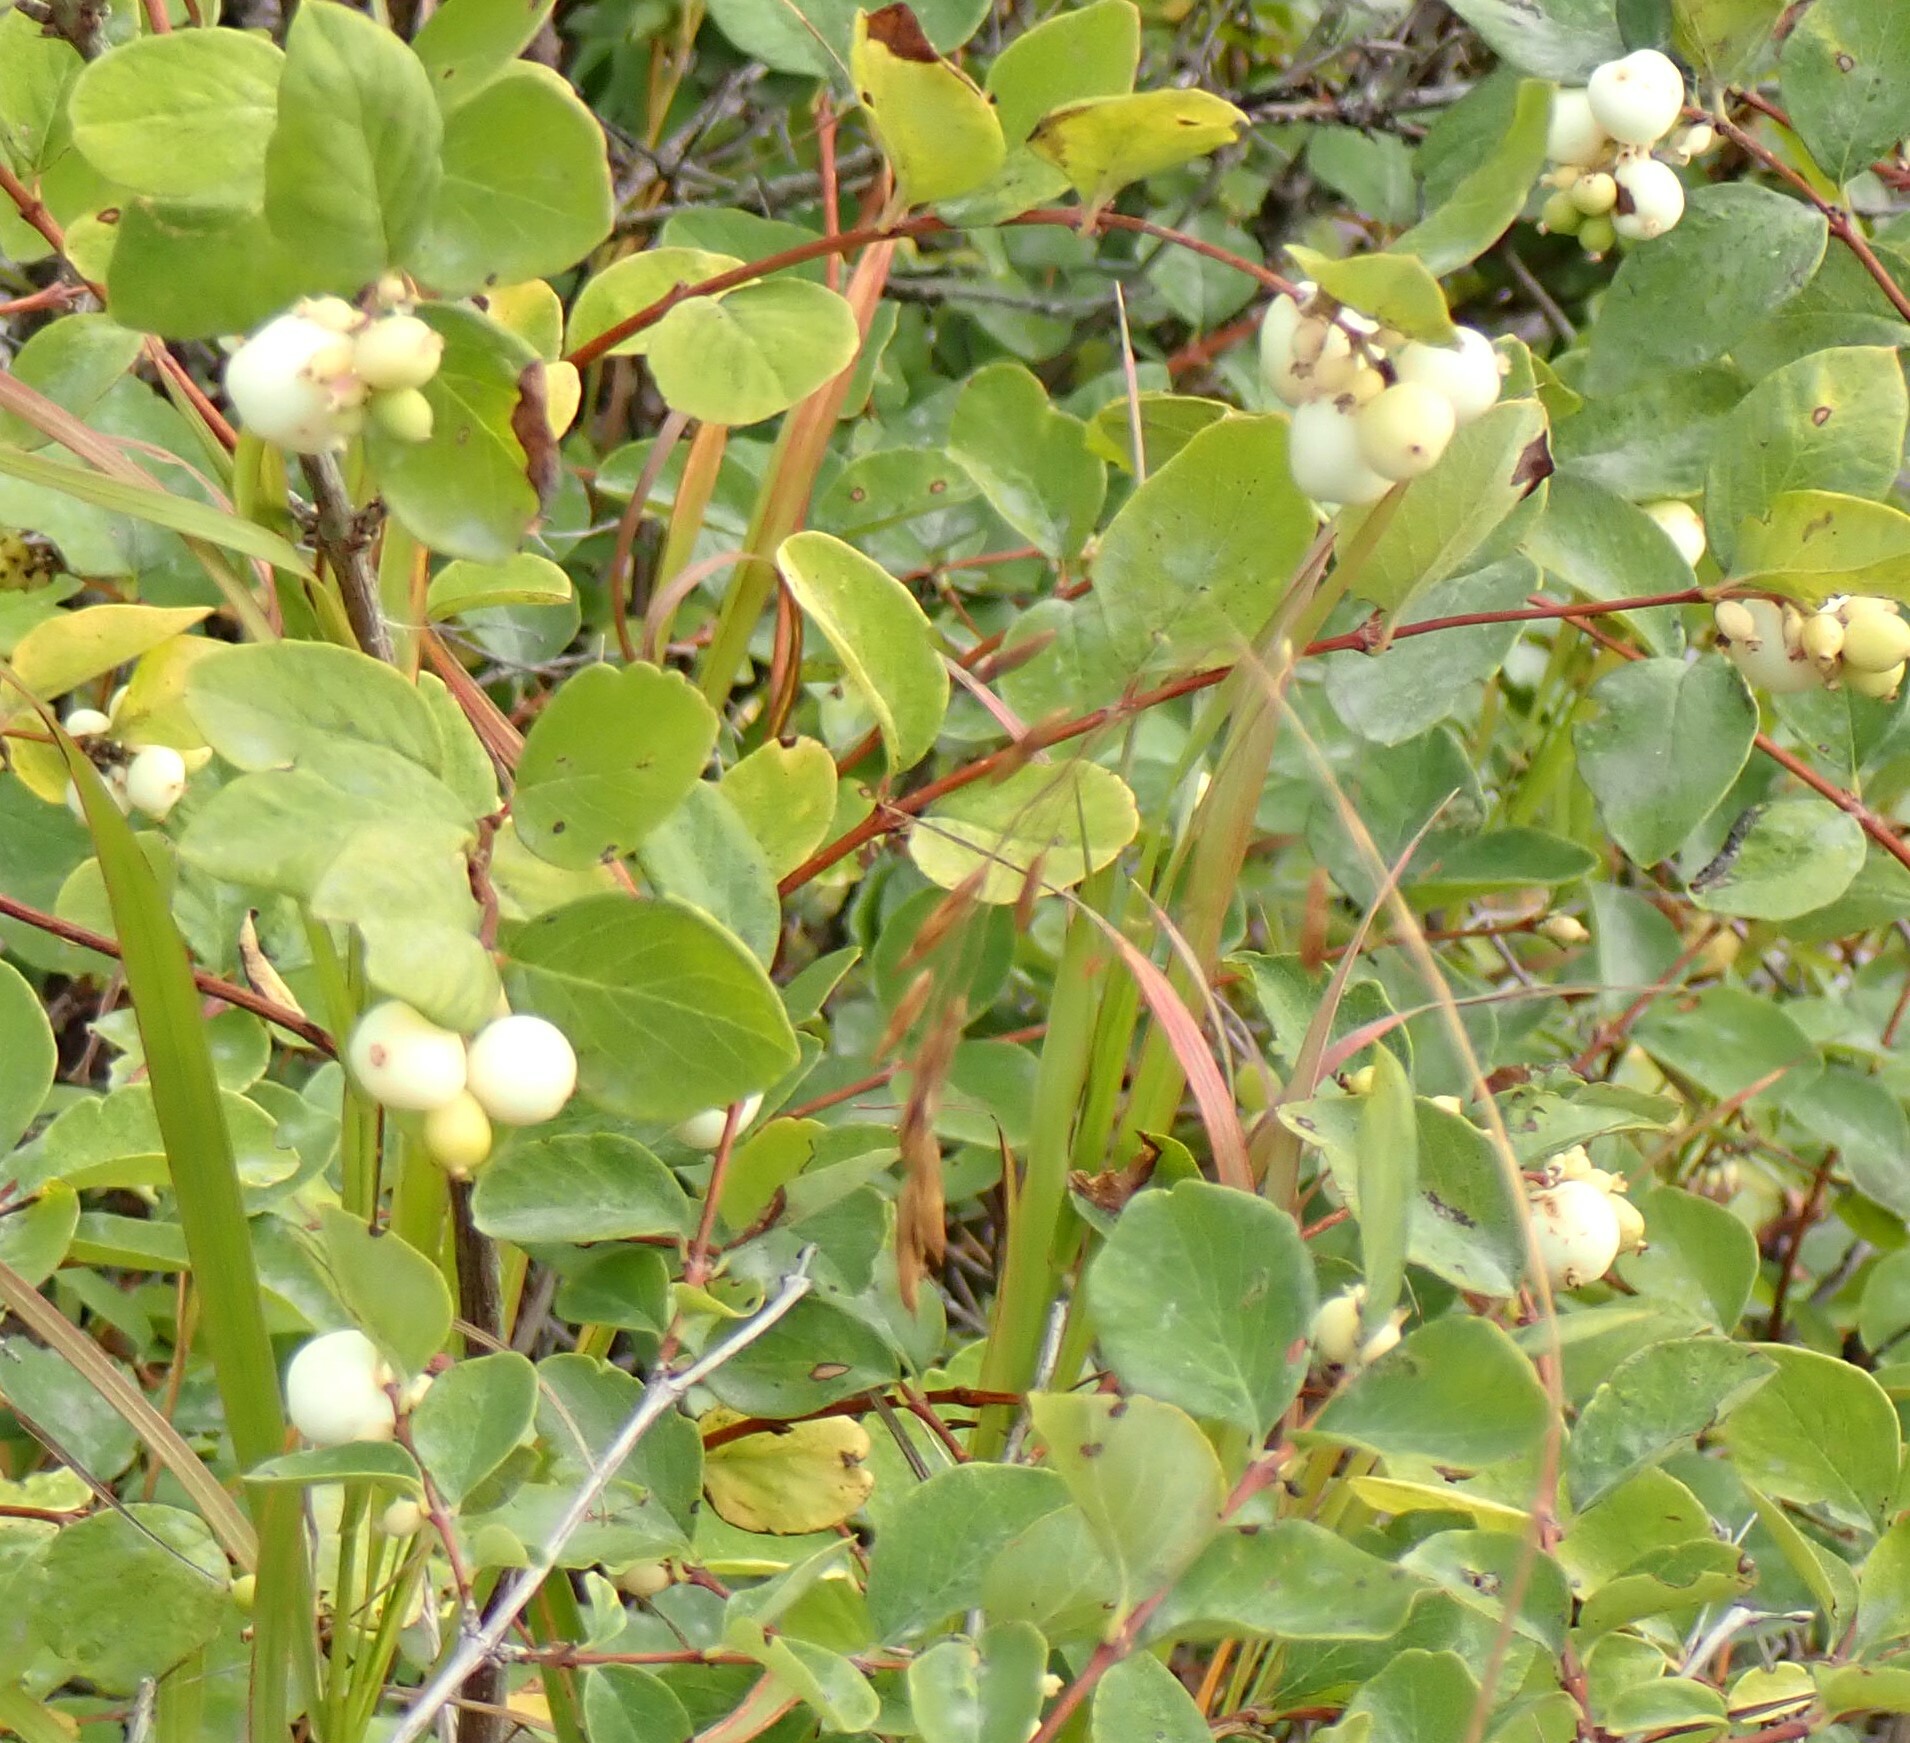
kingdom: Plantae
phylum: Tracheophyta
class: Magnoliopsida
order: Dipsacales
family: Caprifoliaceae
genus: Symphoricarpos
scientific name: Symphoricarpos occidentalis
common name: Wolfberry
